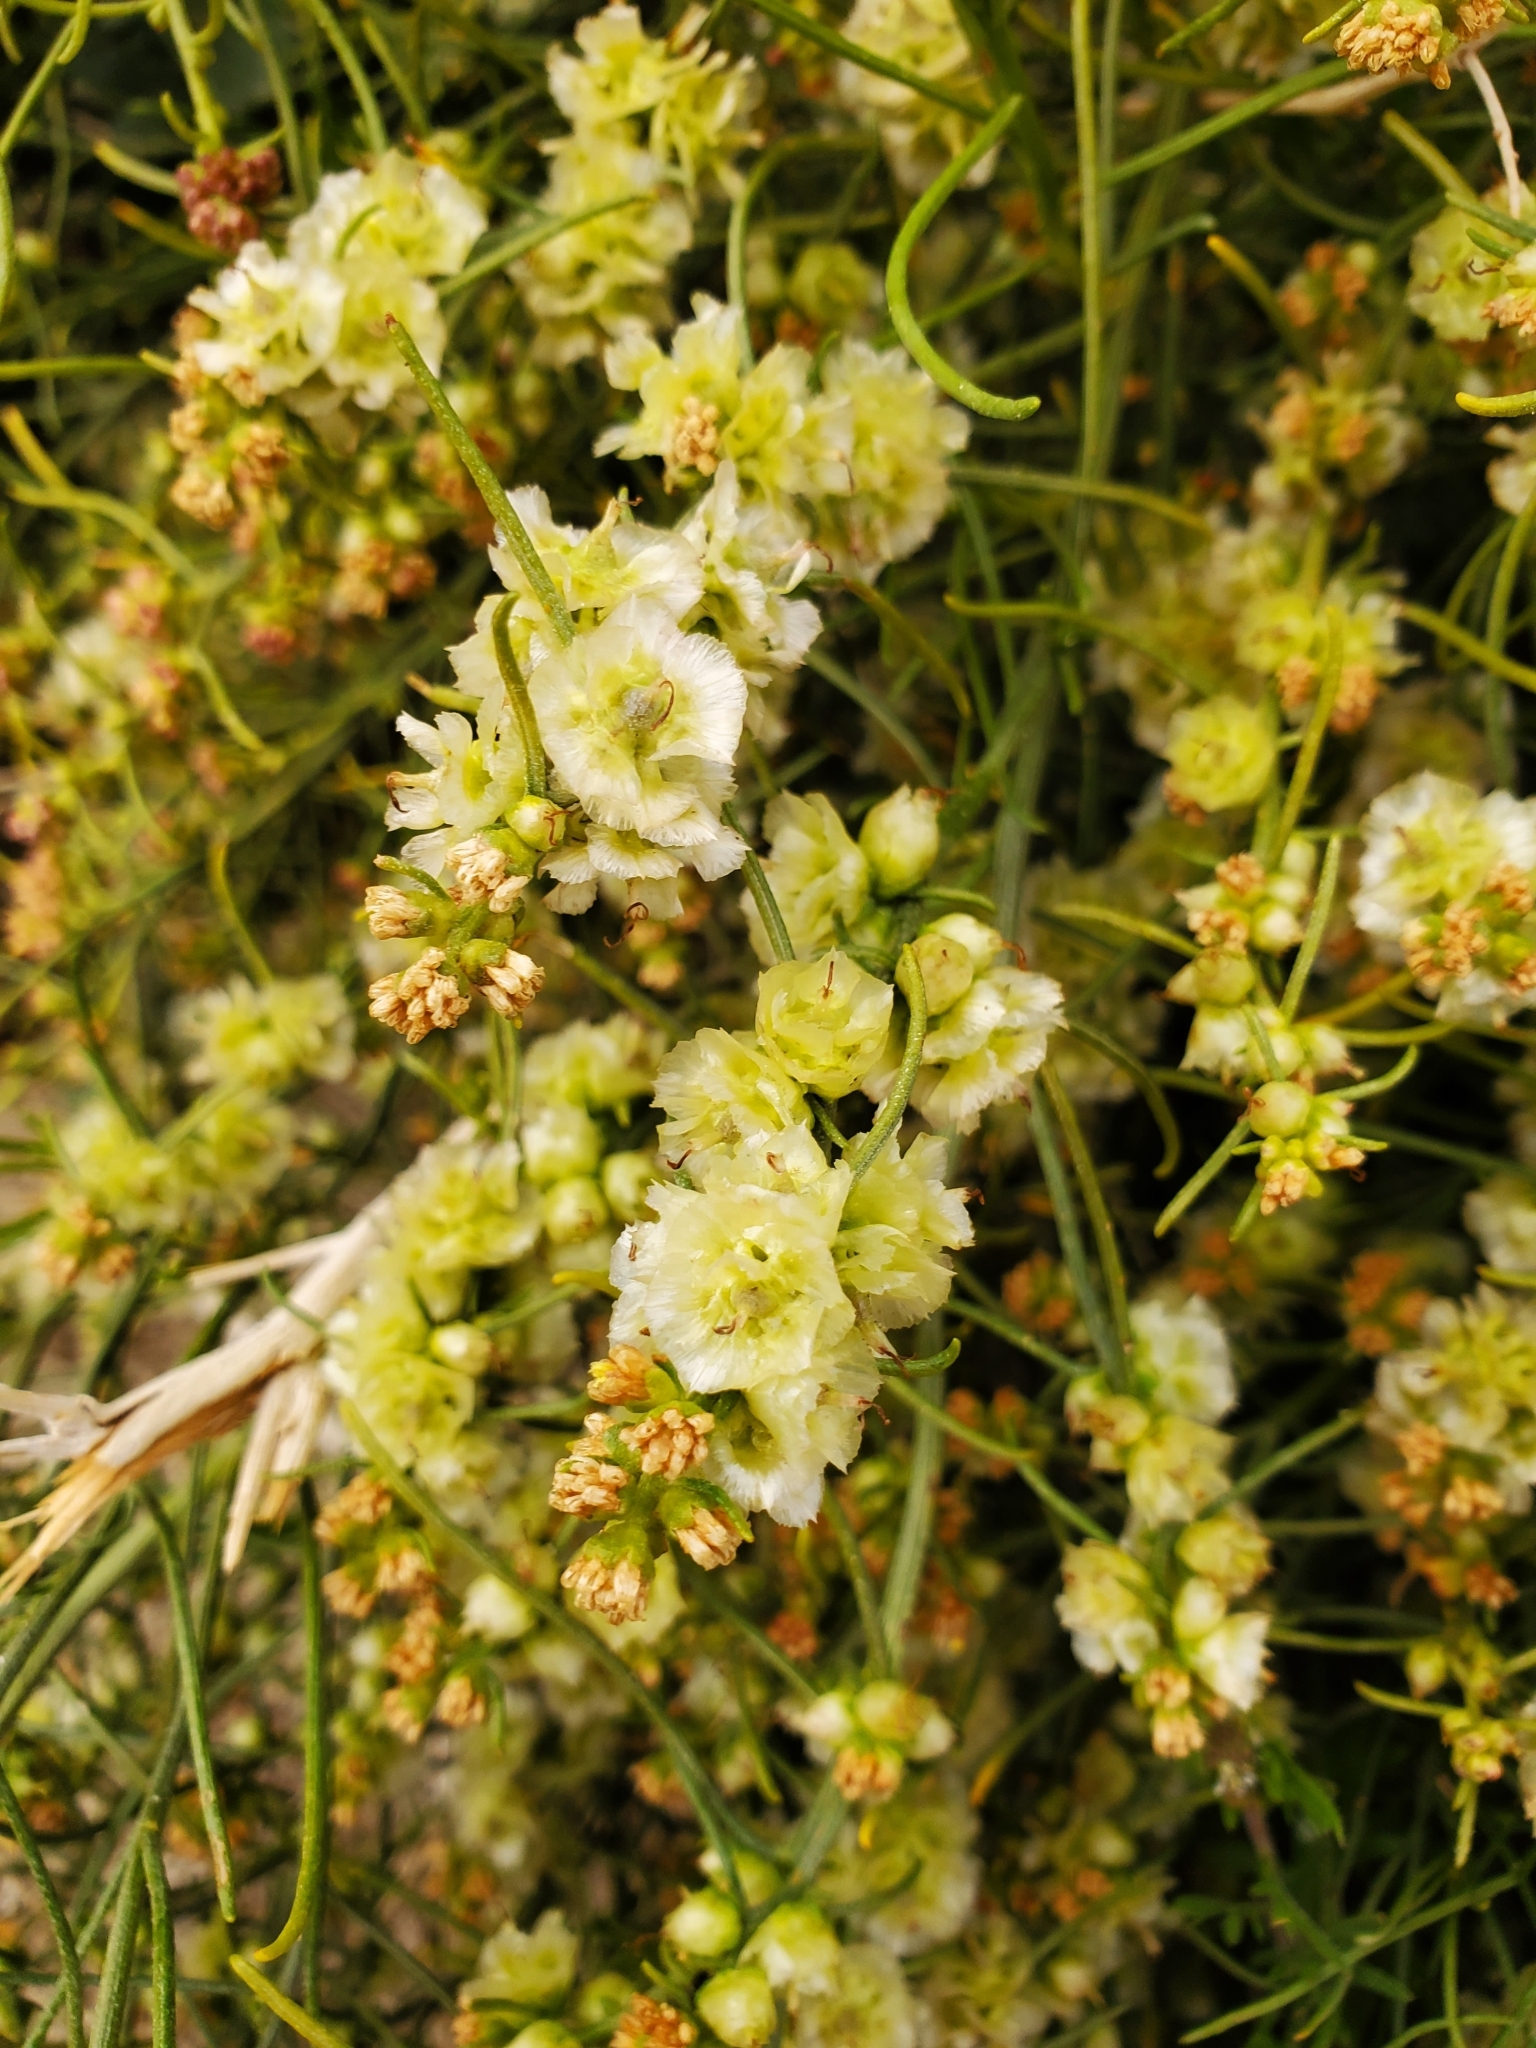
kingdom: Plantae
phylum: Tracheophyta
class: Magnoliopsida
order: Asterales
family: Asteraceae
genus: Ambrosia
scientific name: Ambrosia salsola
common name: Burrobrush
